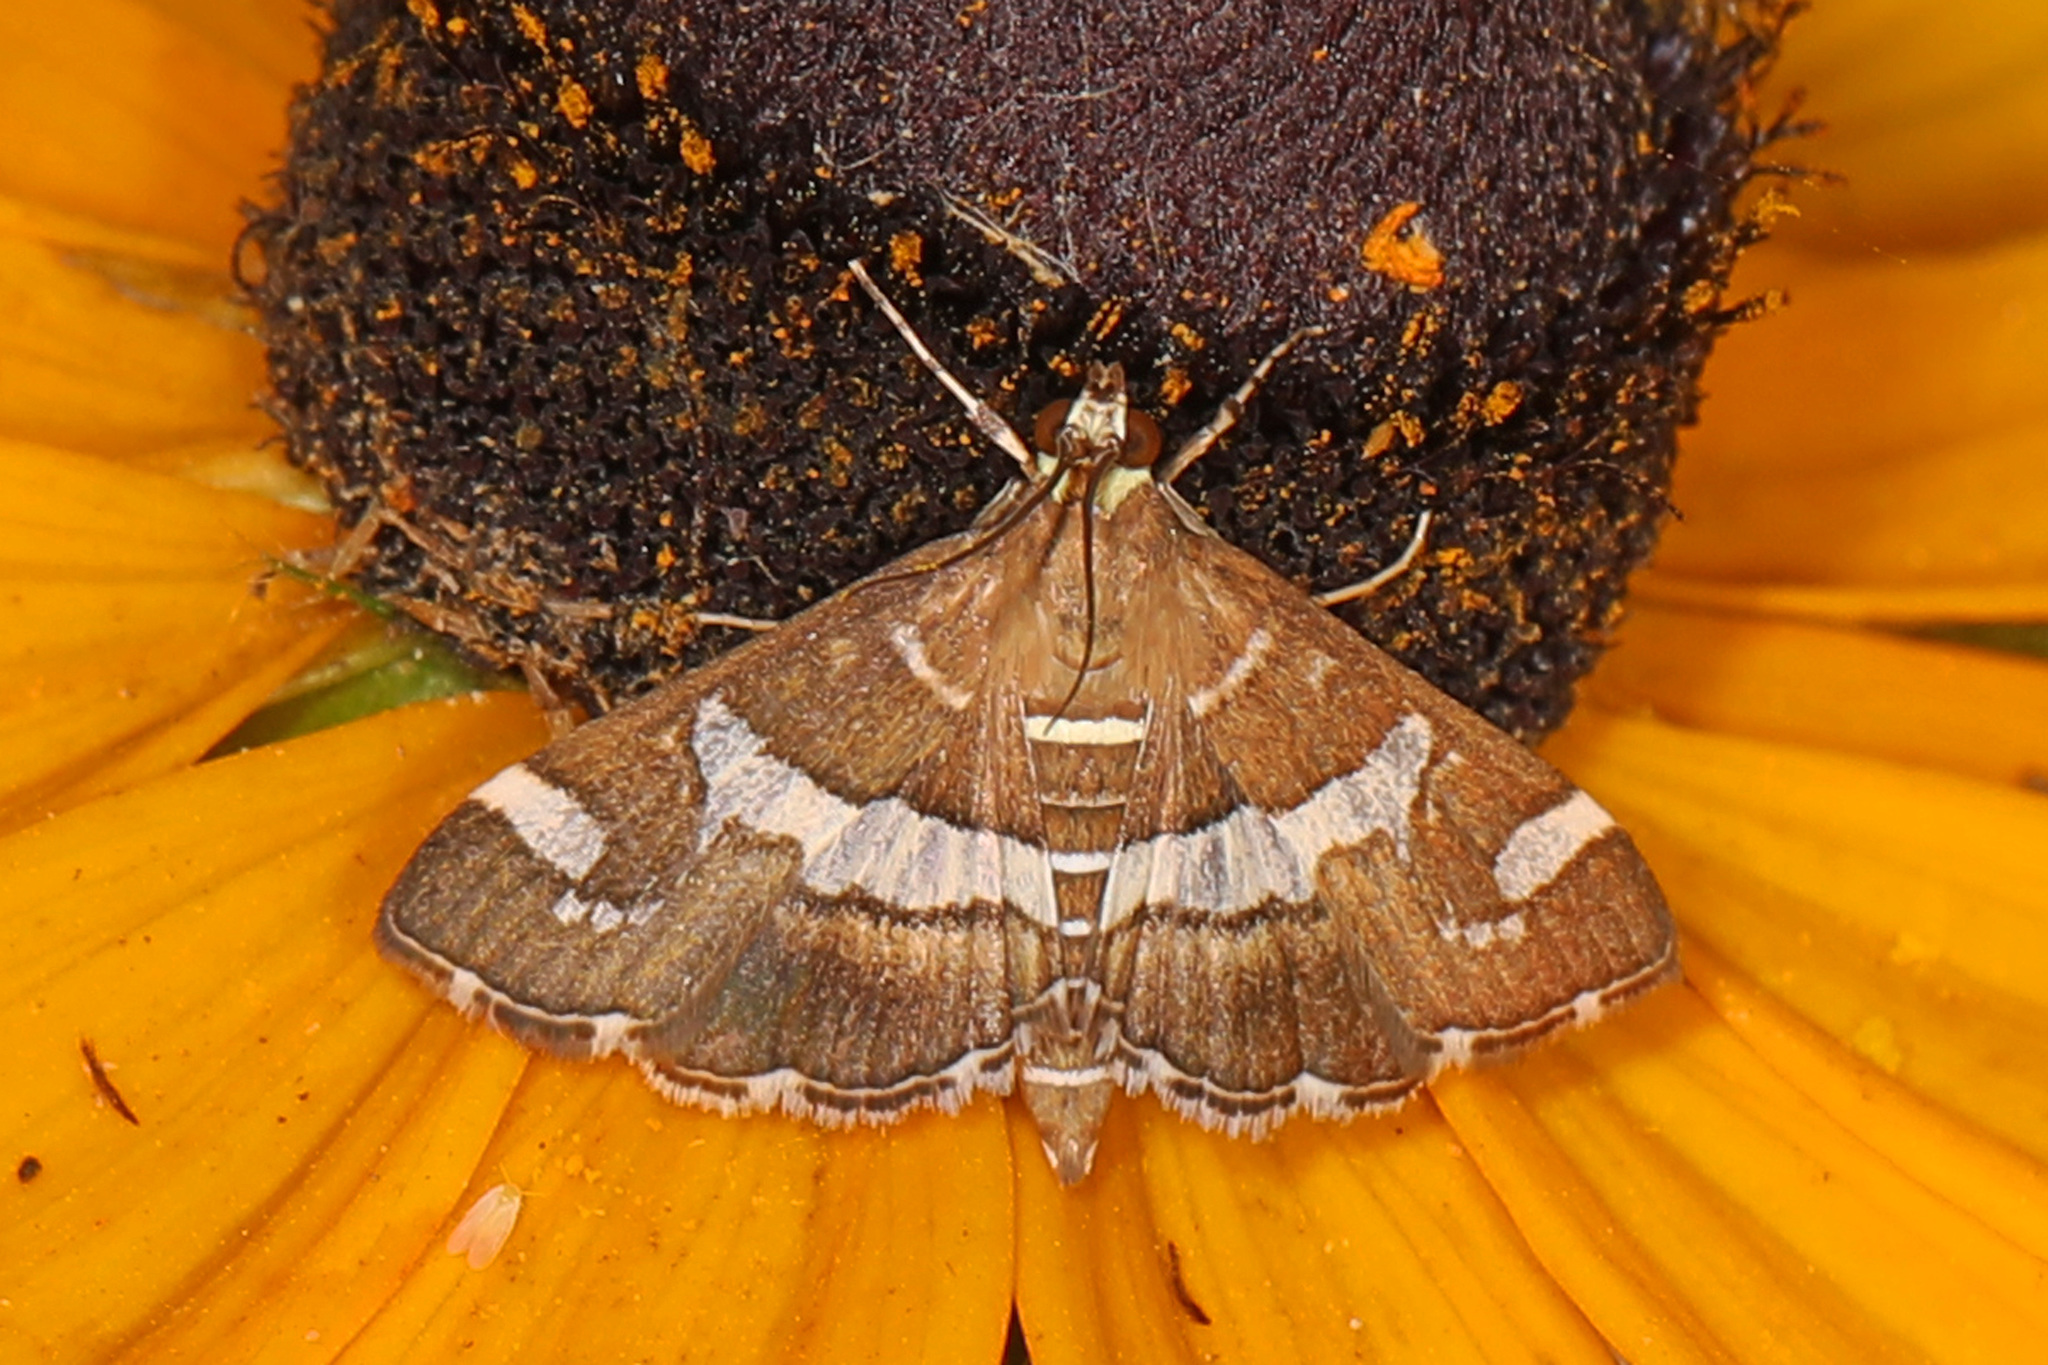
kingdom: Animalia
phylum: Arthropoda
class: Insecta
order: Lepidoptera
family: Crambidae
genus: Spoladea
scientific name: Spoladea recurvalis
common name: Beet webworm moth
